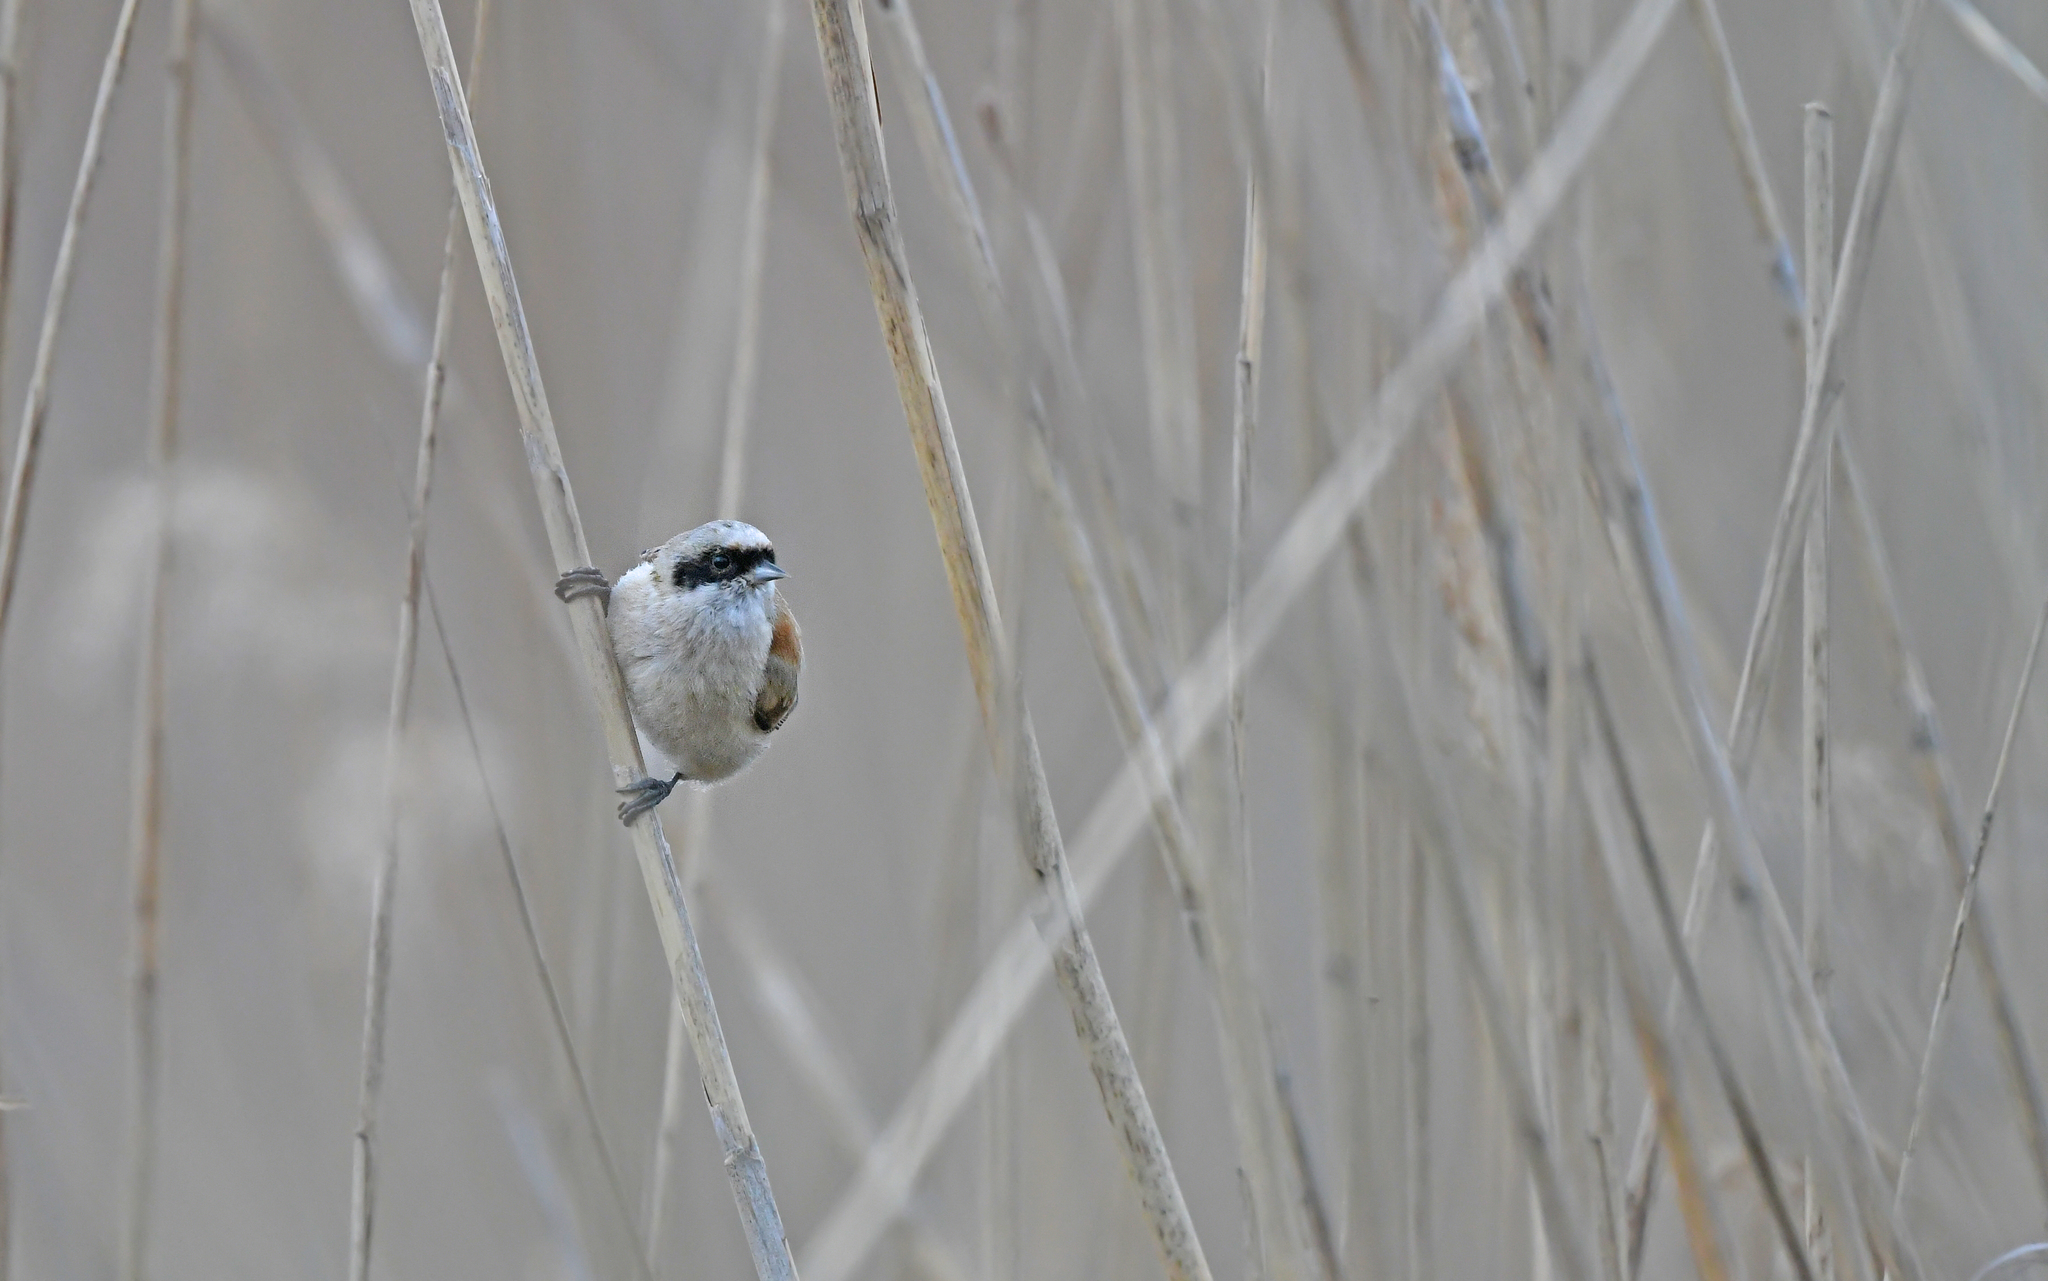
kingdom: Animalia
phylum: Chordata
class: Aves
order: Passeriformes
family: Remizidae
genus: Remiz
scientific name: Remiz pendulinus
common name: Eurasian penduline tit
